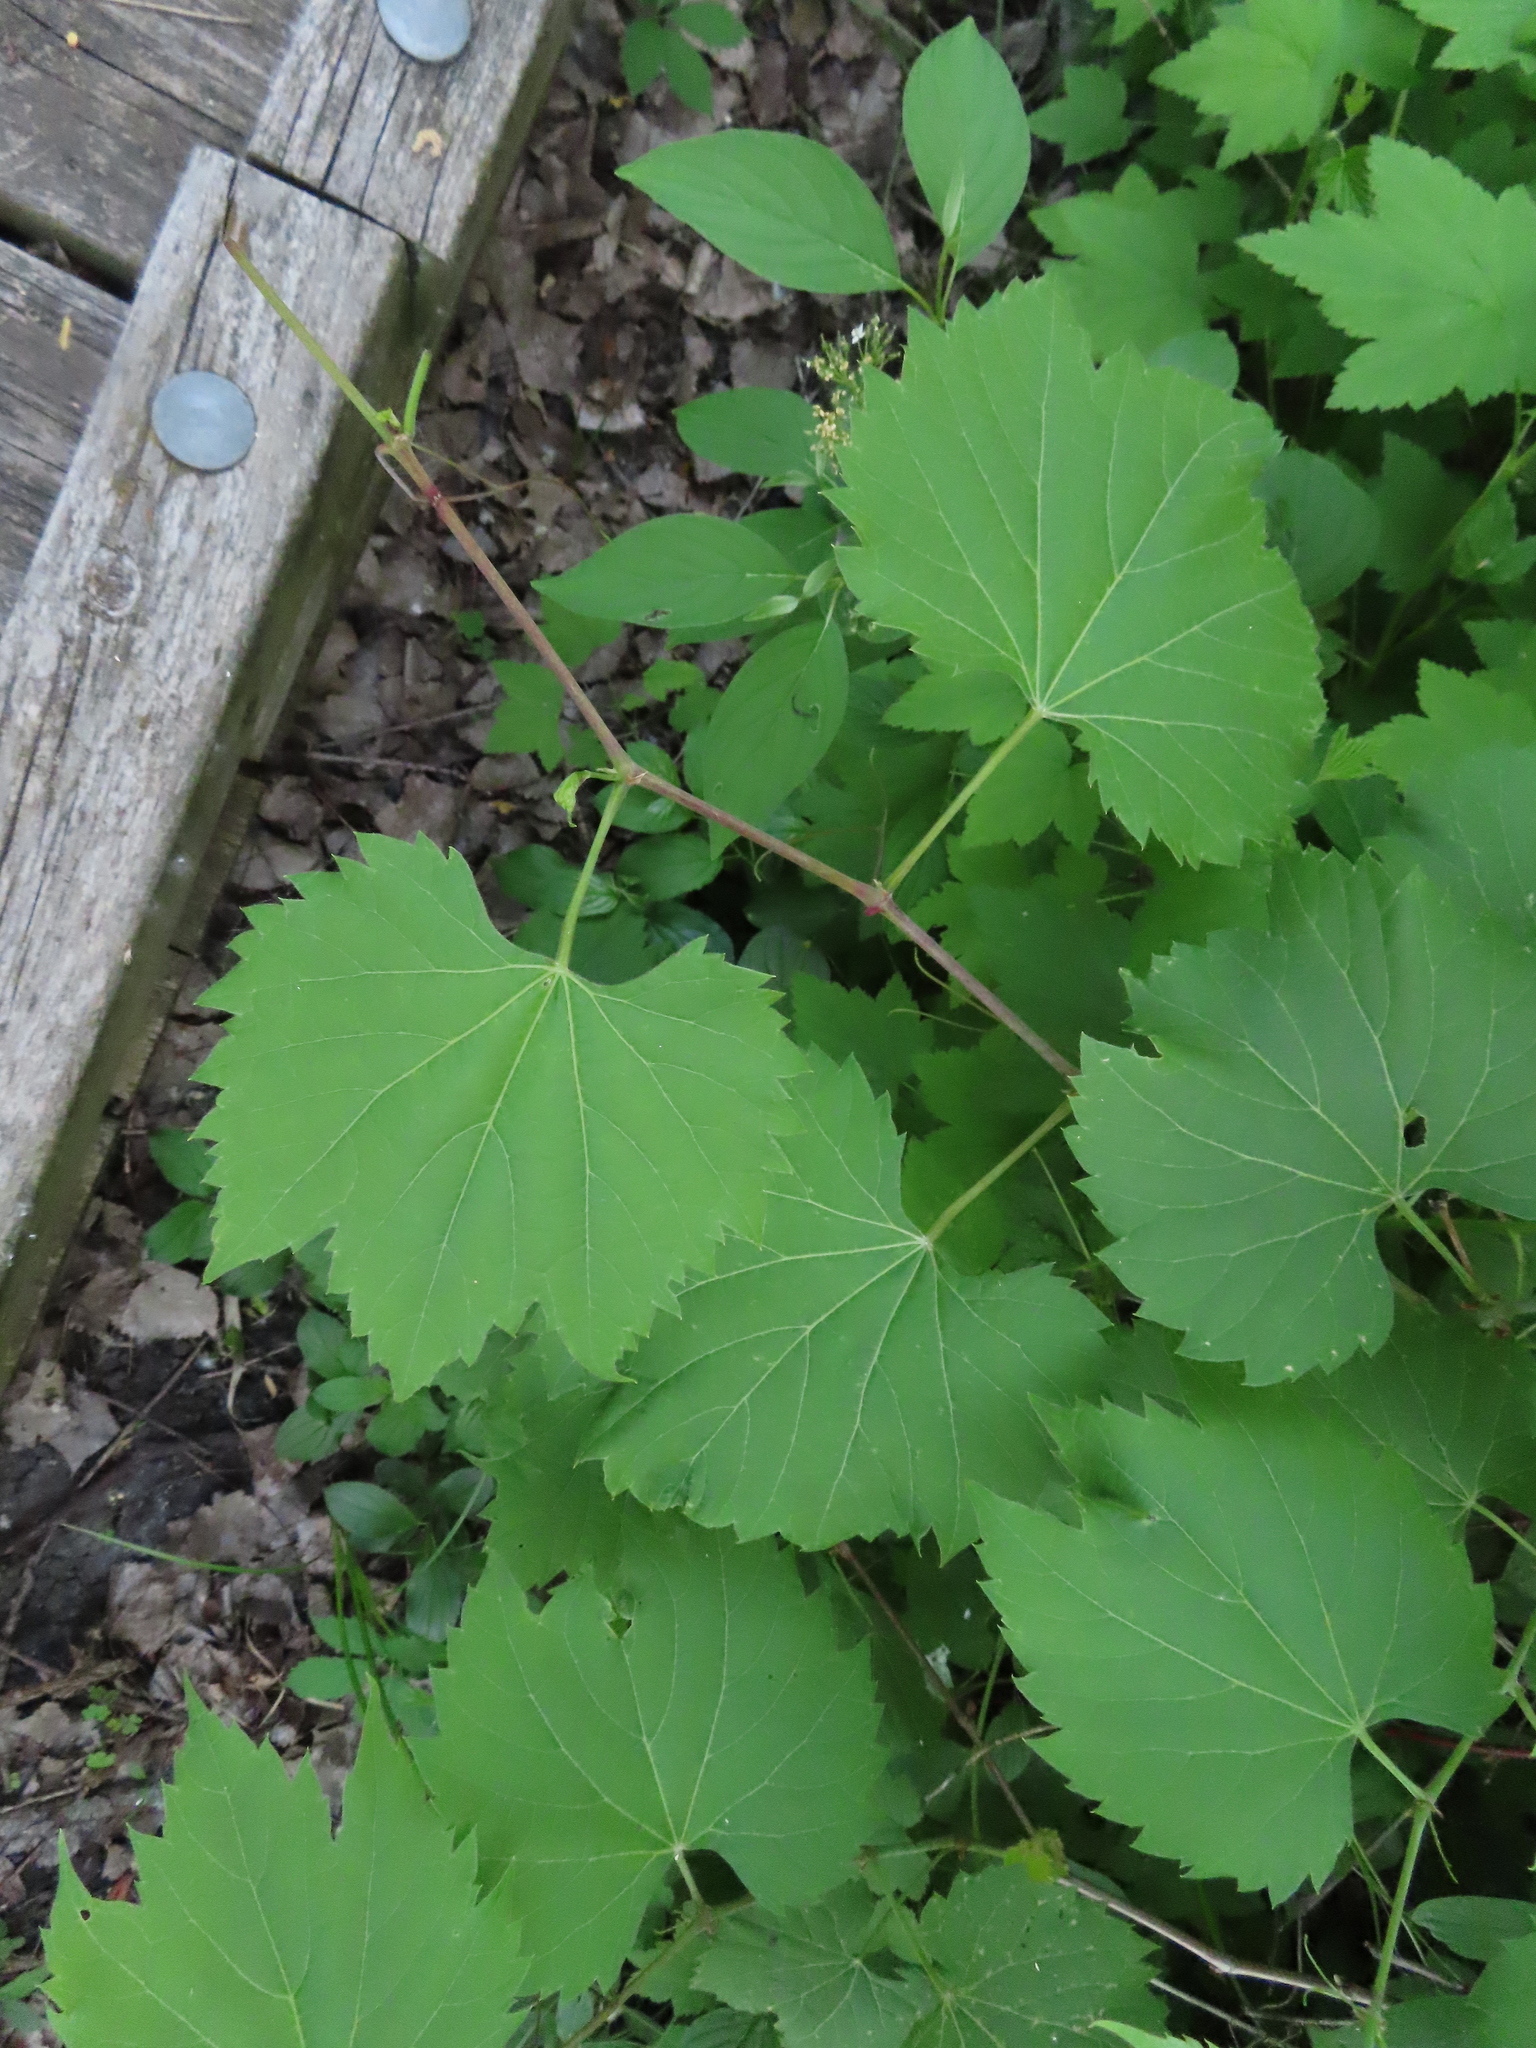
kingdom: Plantae
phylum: Tracheophyta
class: Magnoliopsida
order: Vitales
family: Vitaceae
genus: Vitis
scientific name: Vitis riparia
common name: Frost grape
